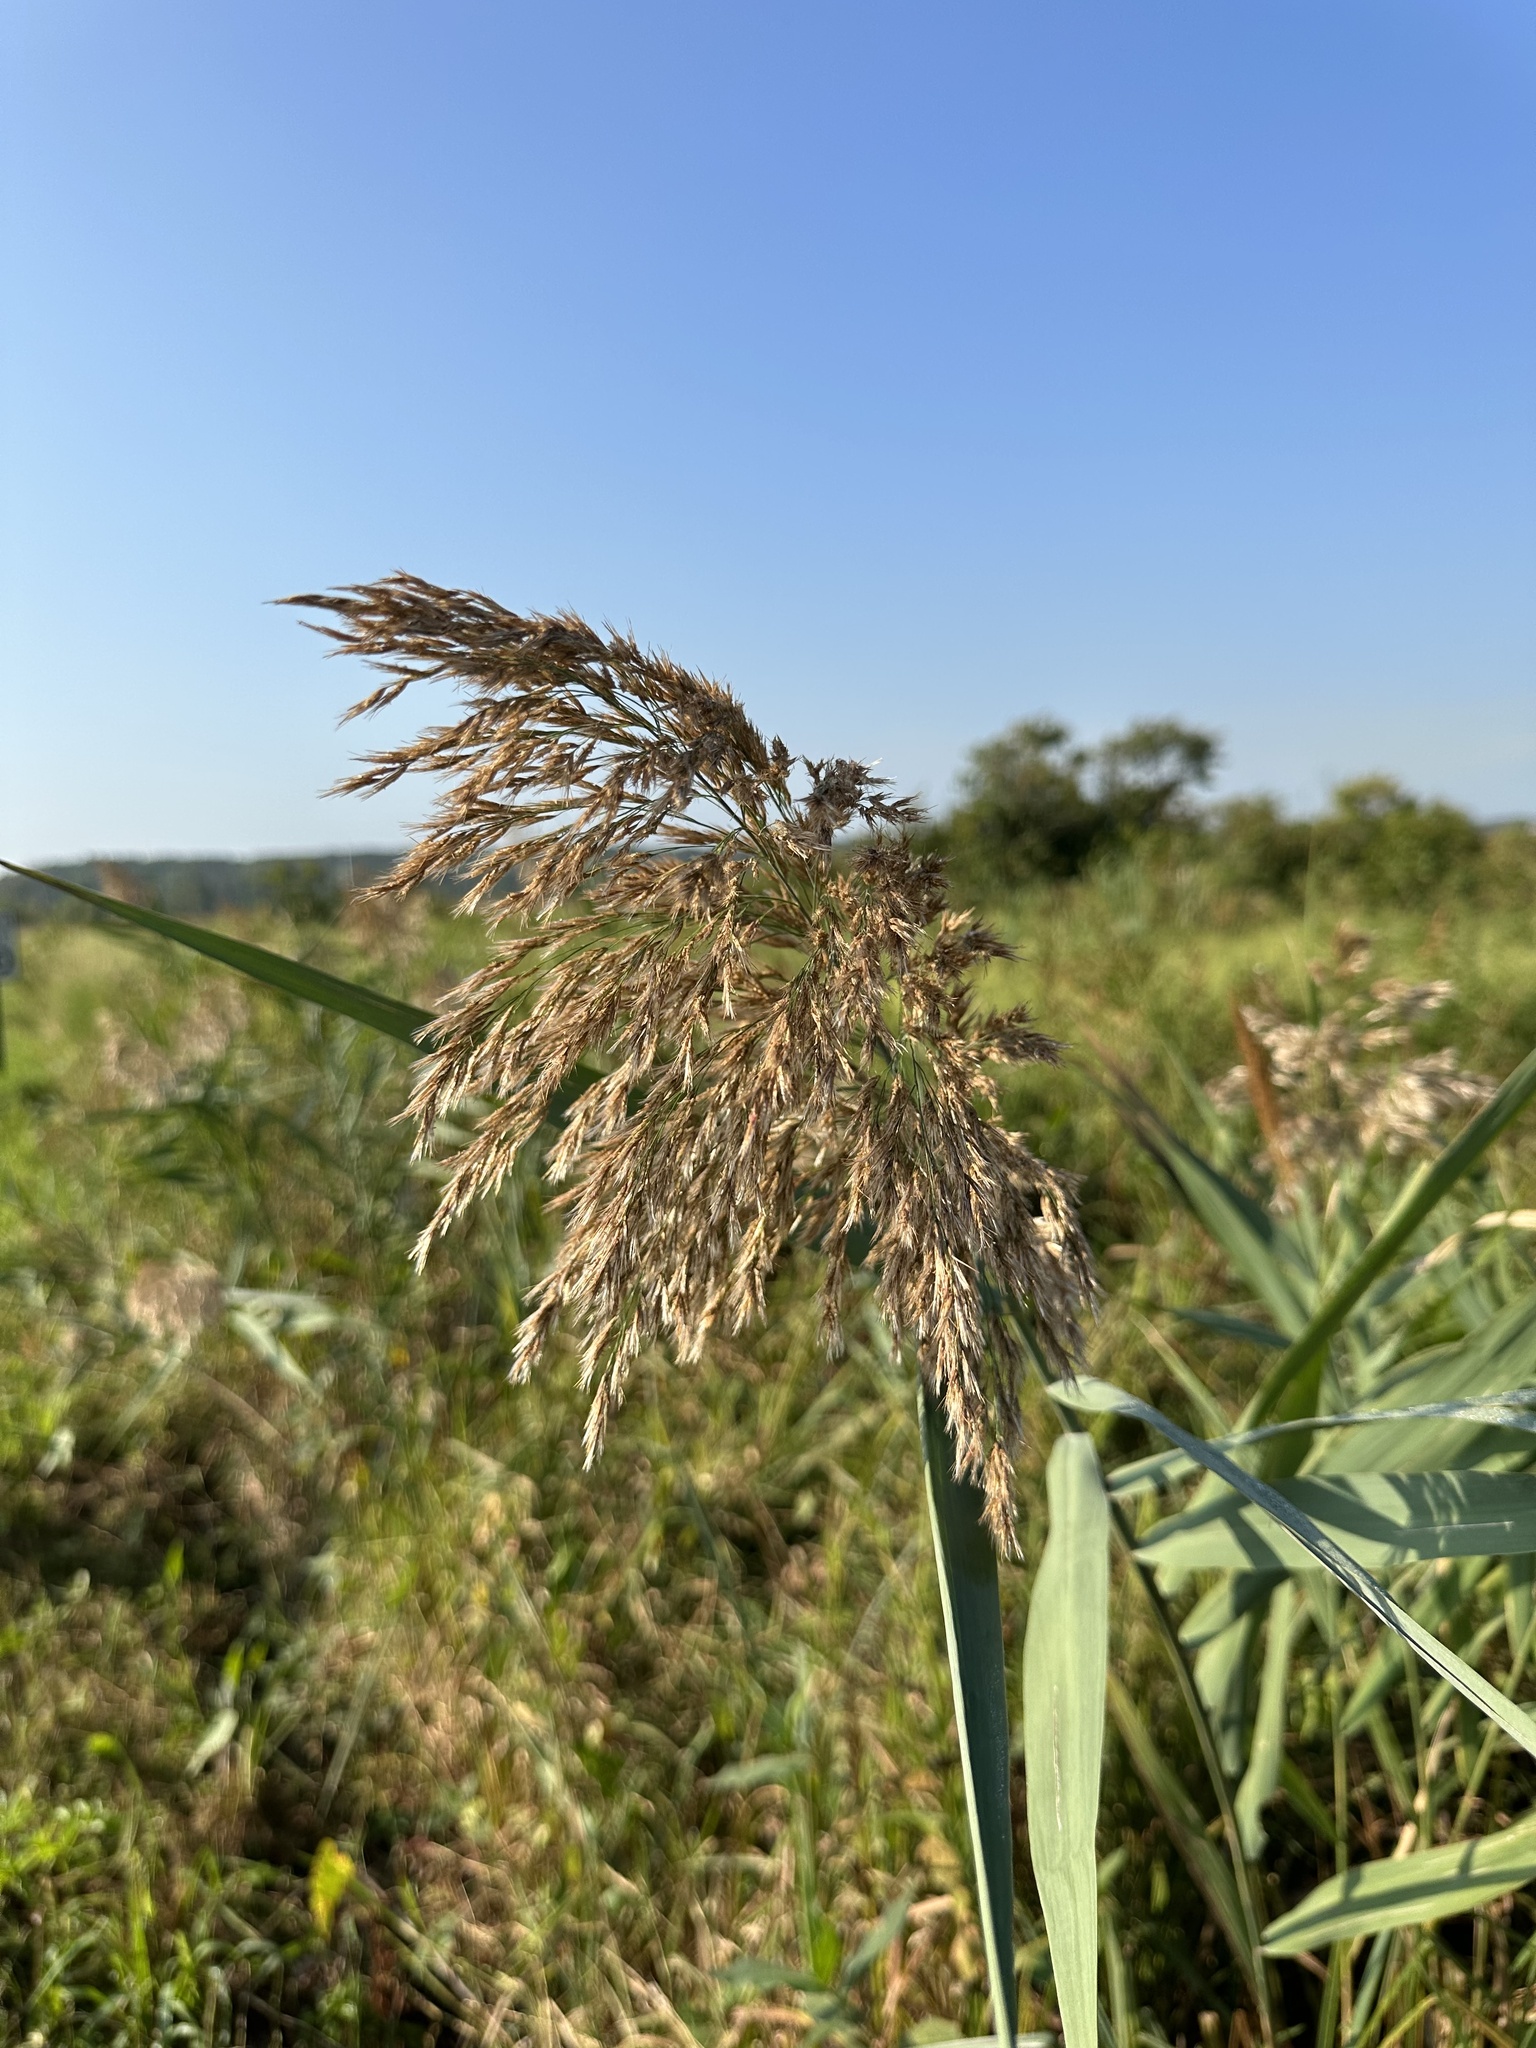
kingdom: Plantae
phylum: Tracheophyta
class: Liliopsida
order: Poales
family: Poaceae
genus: Phragmites
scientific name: Phragmites australis
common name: Common reed
